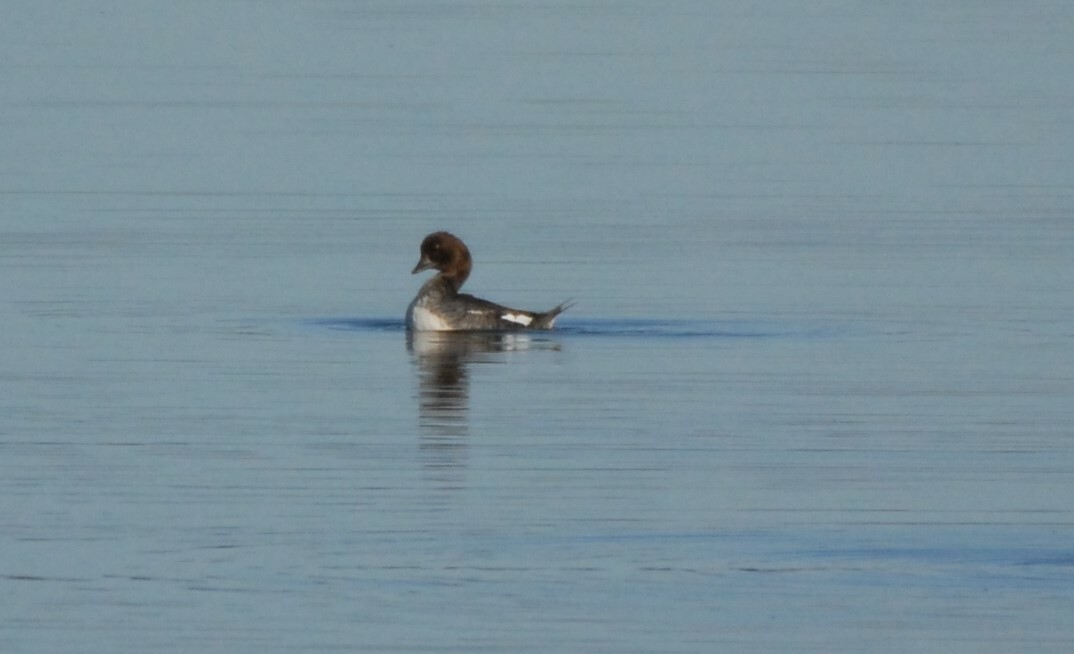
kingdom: Animalia
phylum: Chordata
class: Aves
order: Anseriformes
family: Anatidae
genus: Bucephala
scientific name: Bucephala clangula
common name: Common goldeneye
